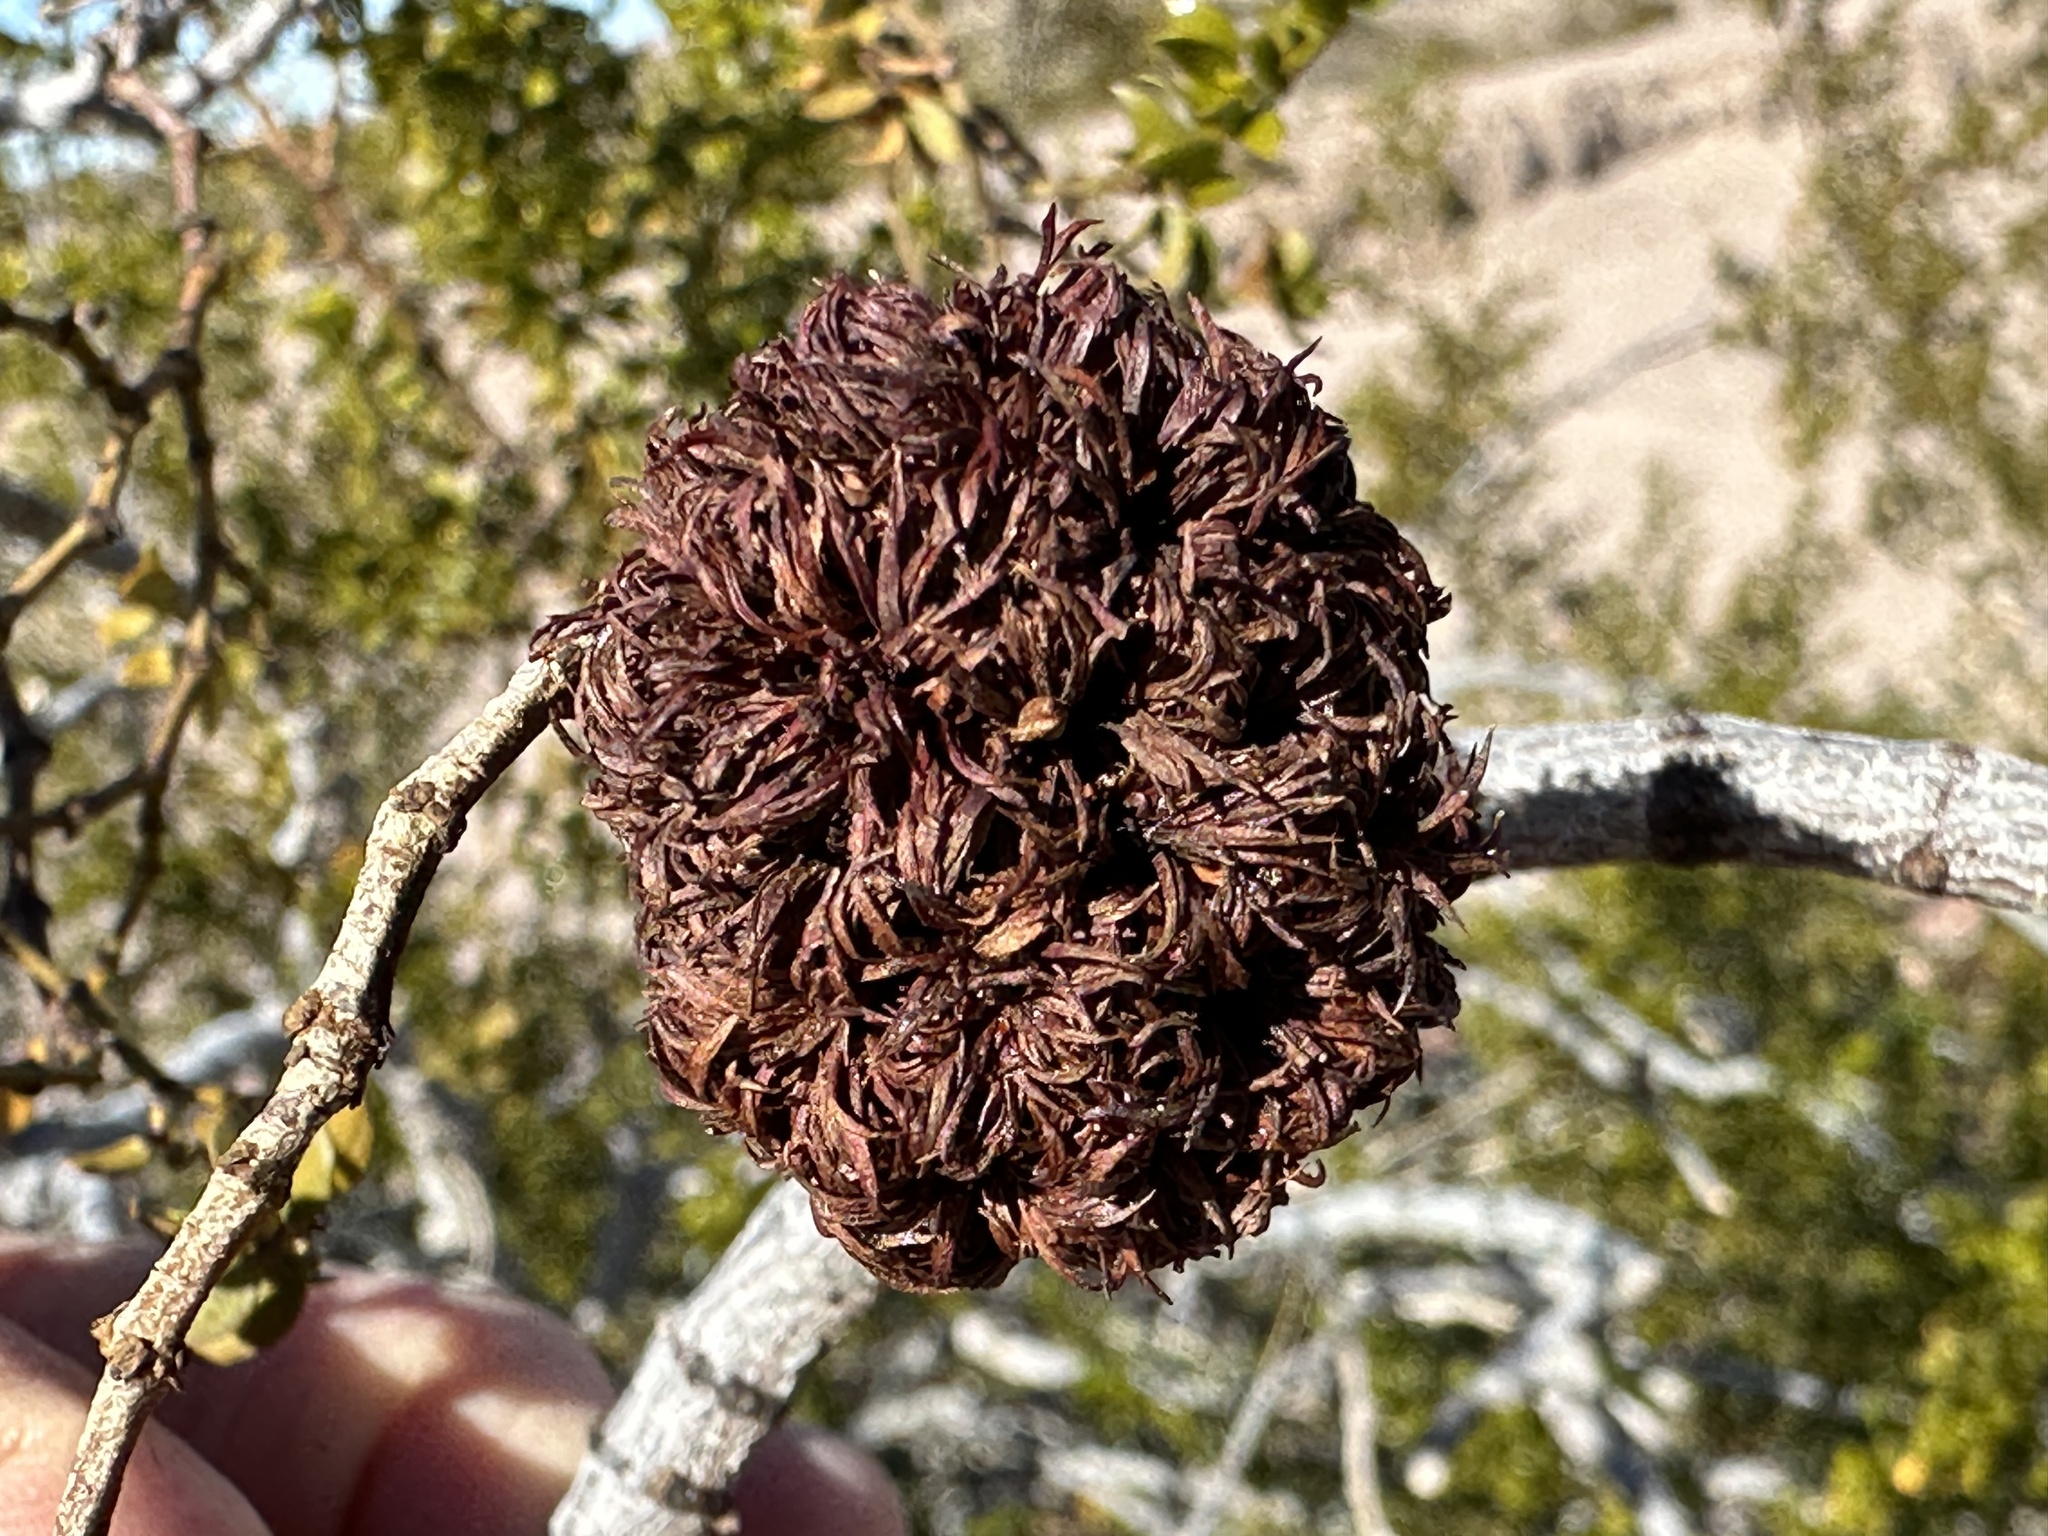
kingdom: Animalia
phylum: Arthropoda
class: Insecta
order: Diptera
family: Cecidomyiidae
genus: Asphondylia
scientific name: Asphondylia auripila
